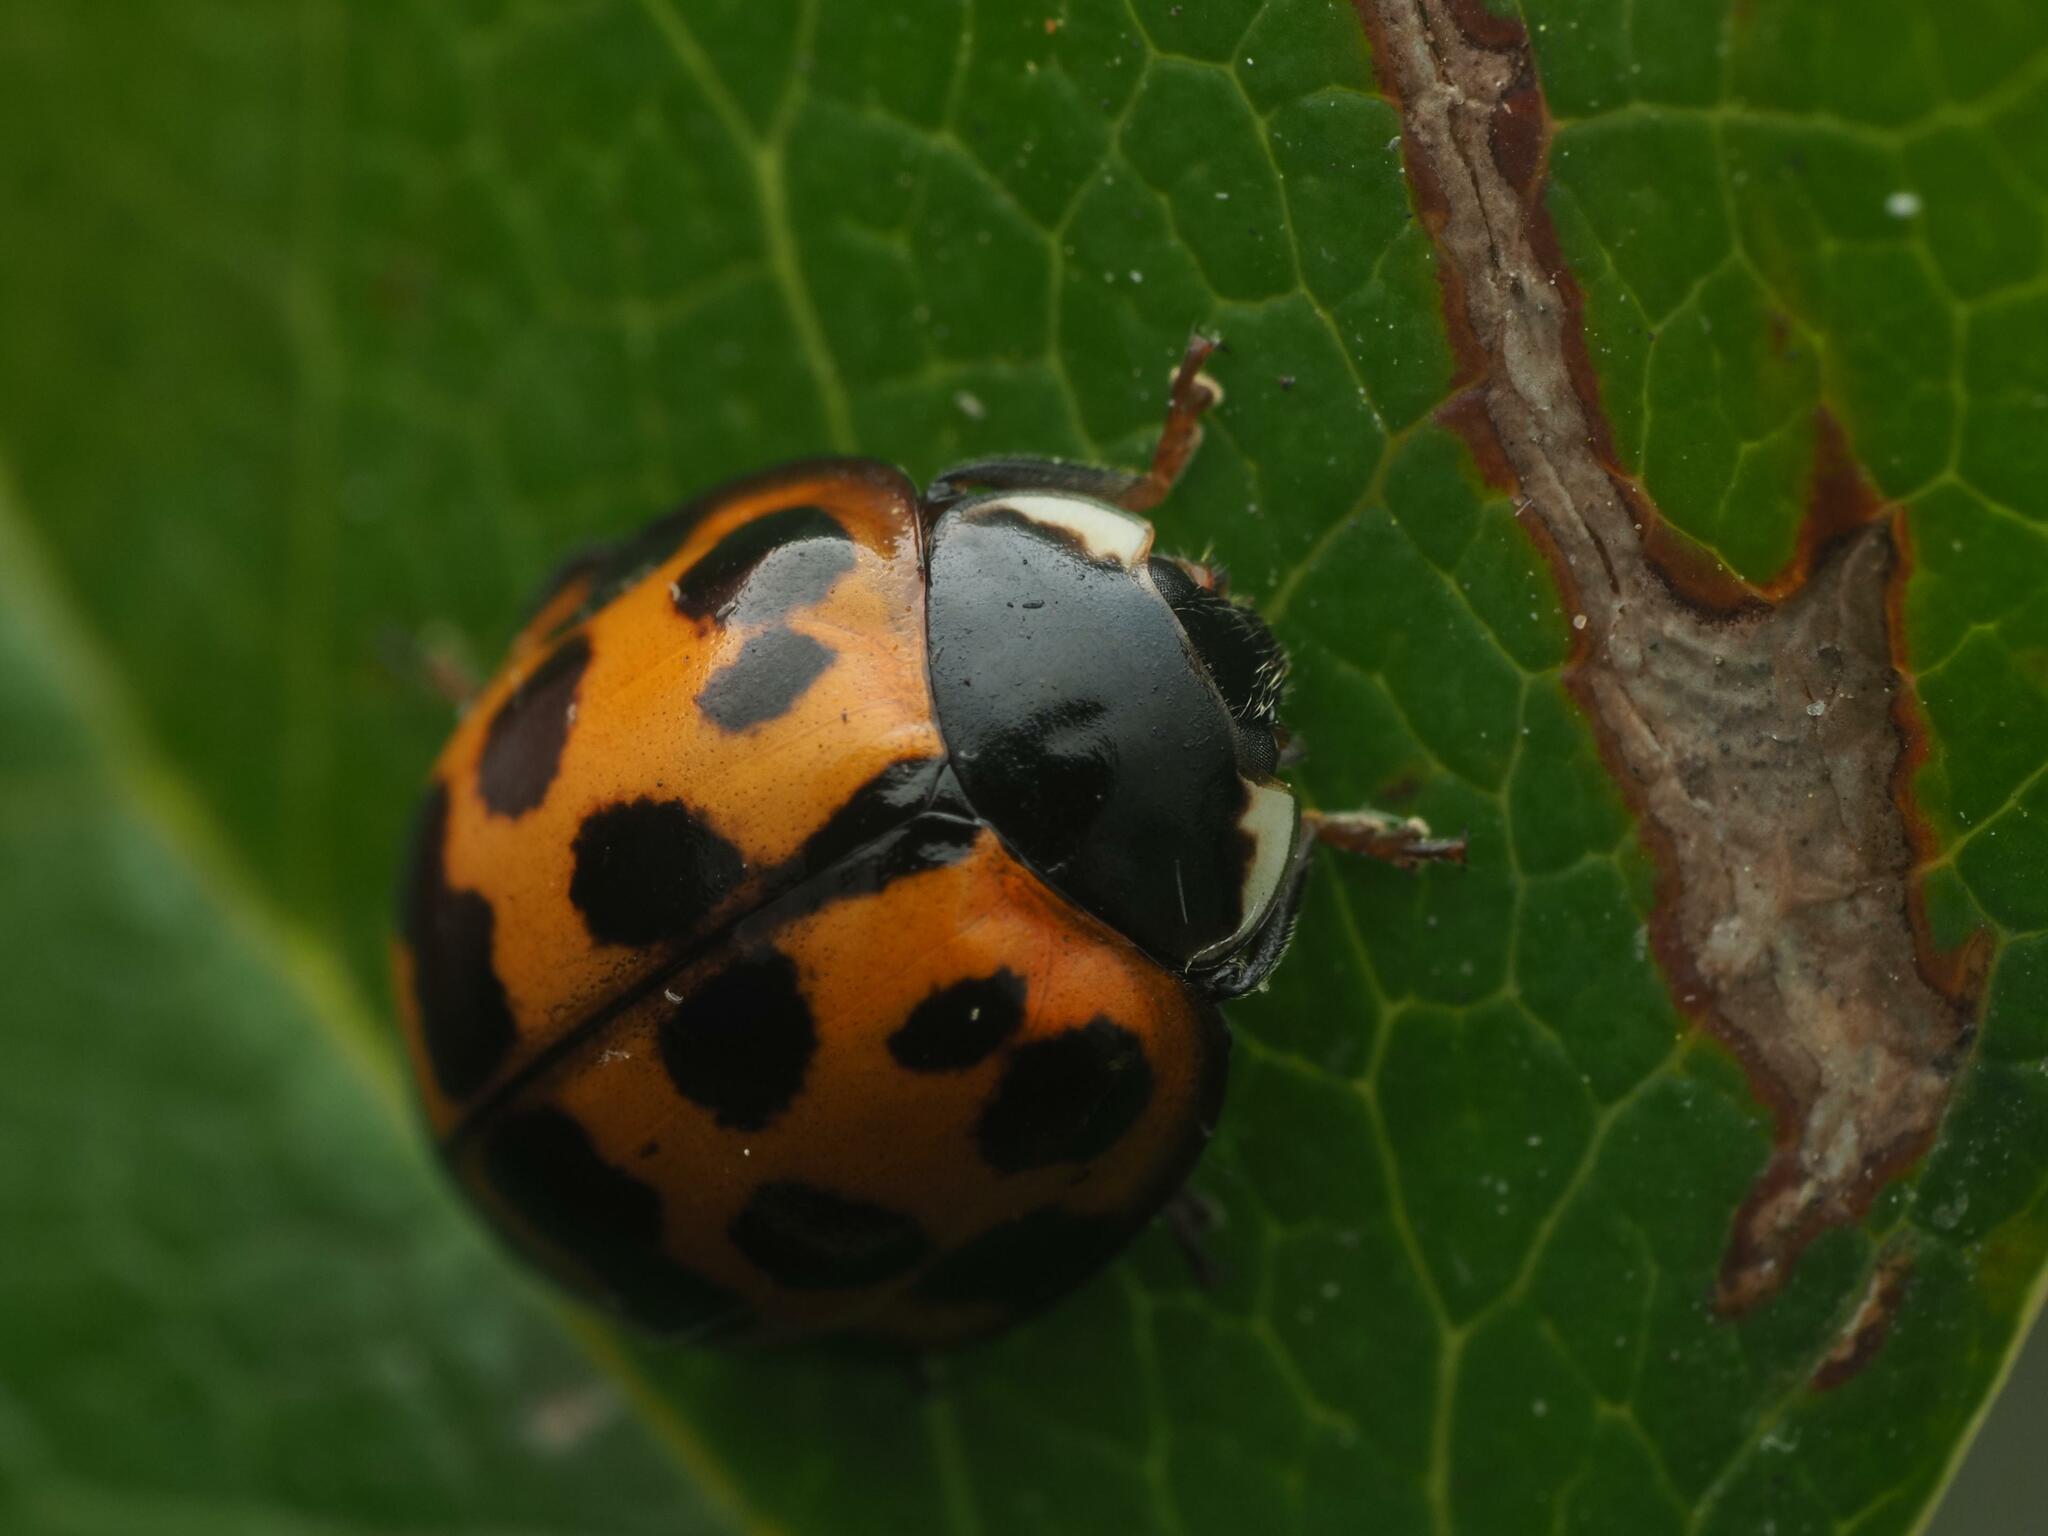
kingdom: Animalia
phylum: Arthropoda
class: Insecta
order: Coleoptera
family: Coccinellidae
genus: Harmonia
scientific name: Harmonia axyridis
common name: Harlequin ladybird
